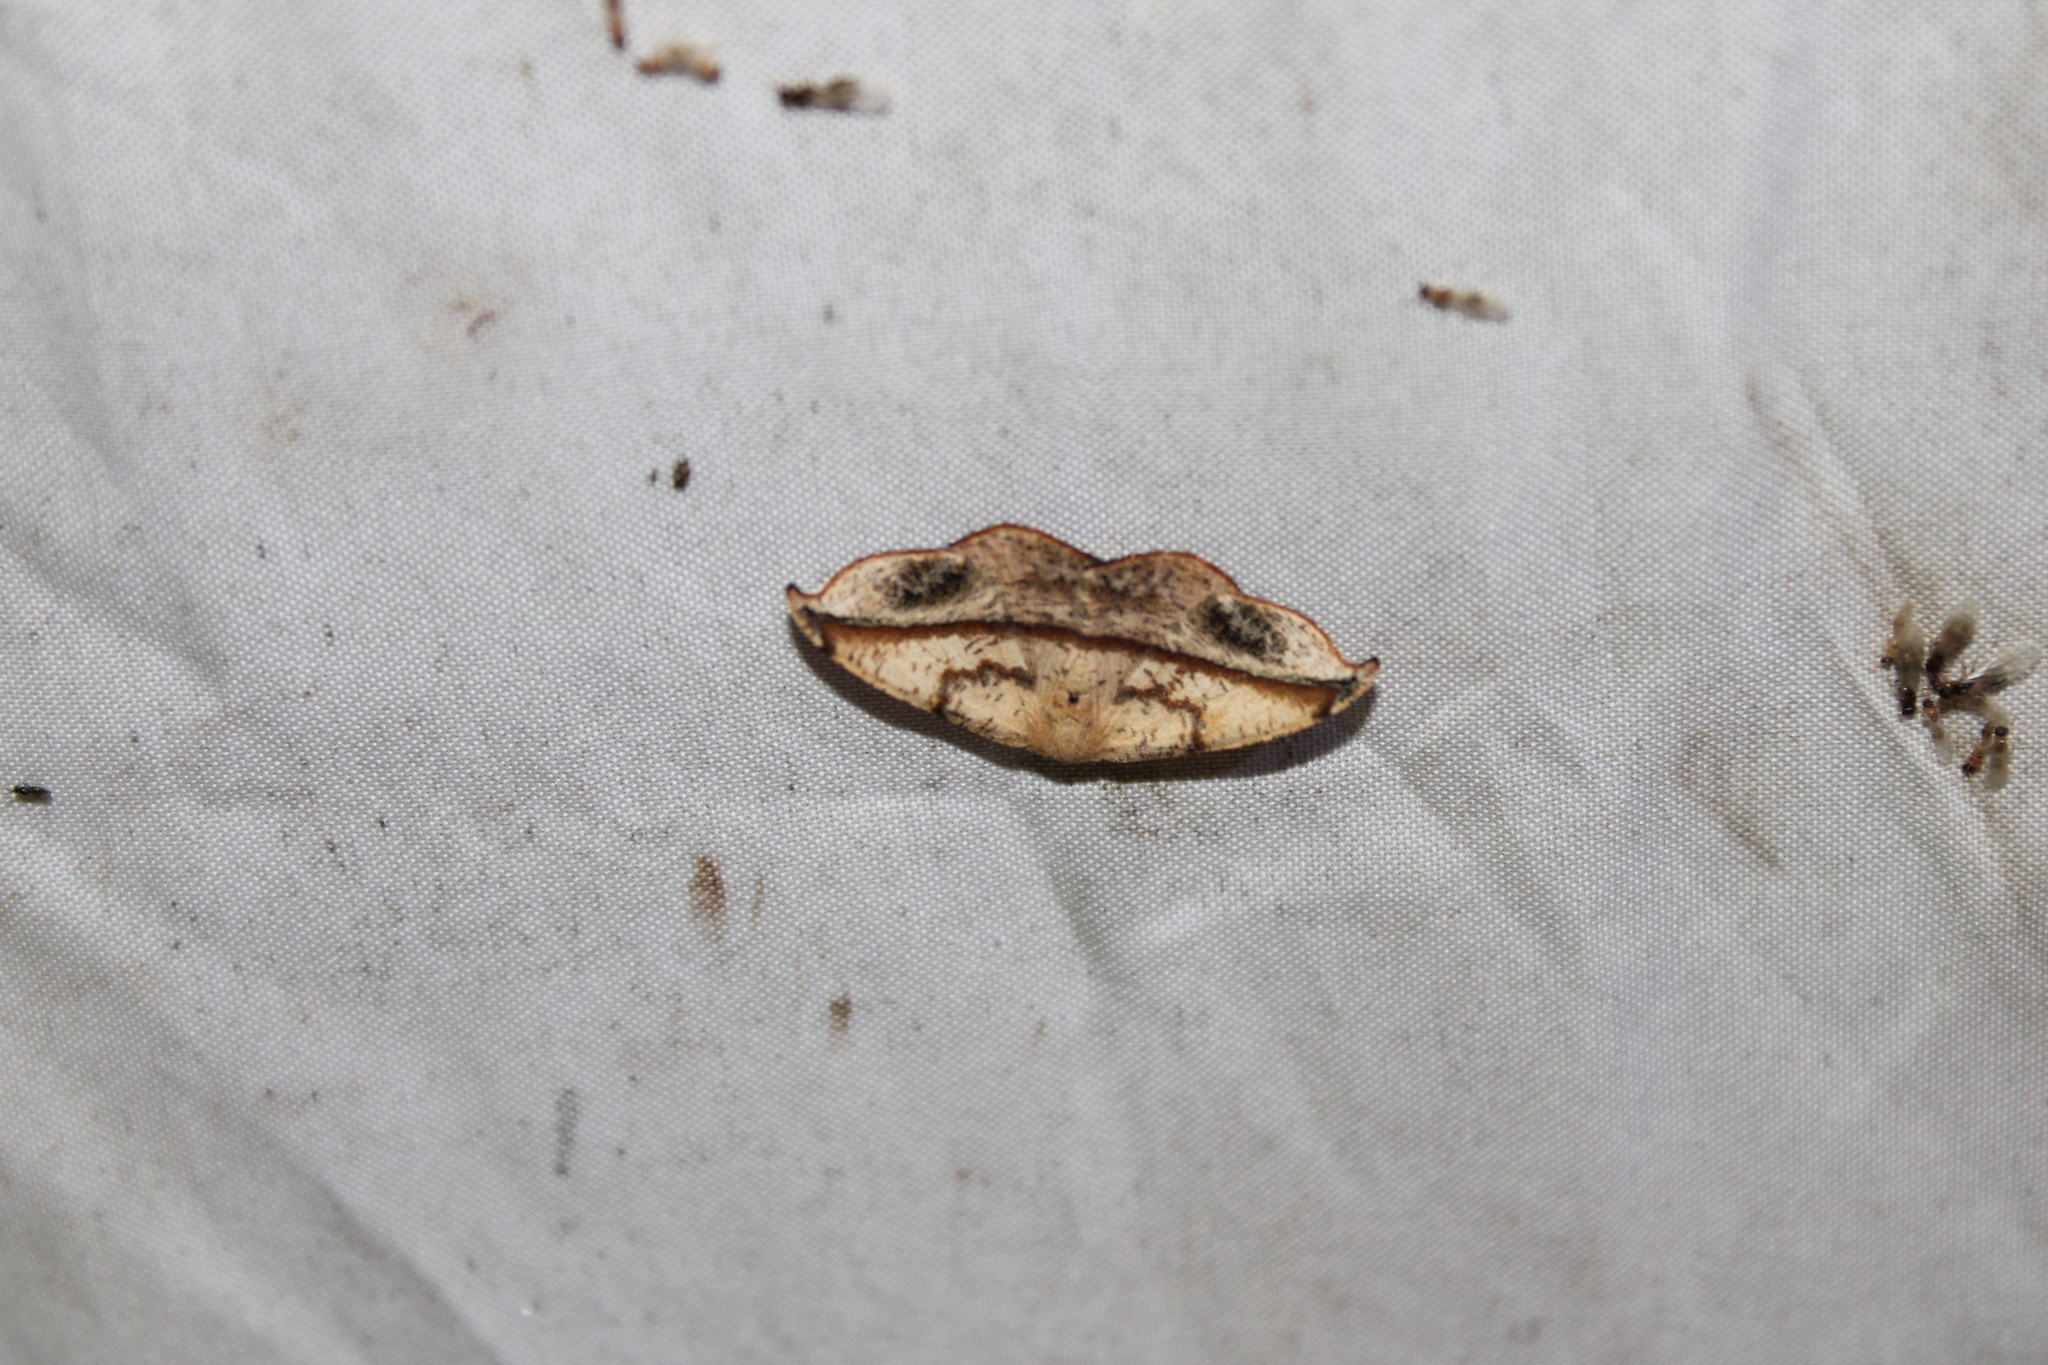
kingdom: Animalia
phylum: Arthropoda
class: Insecta
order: Lepidoptera
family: Geometridae
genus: Patalene
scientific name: Patalene olyzonaria
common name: Juniper geometer moth
